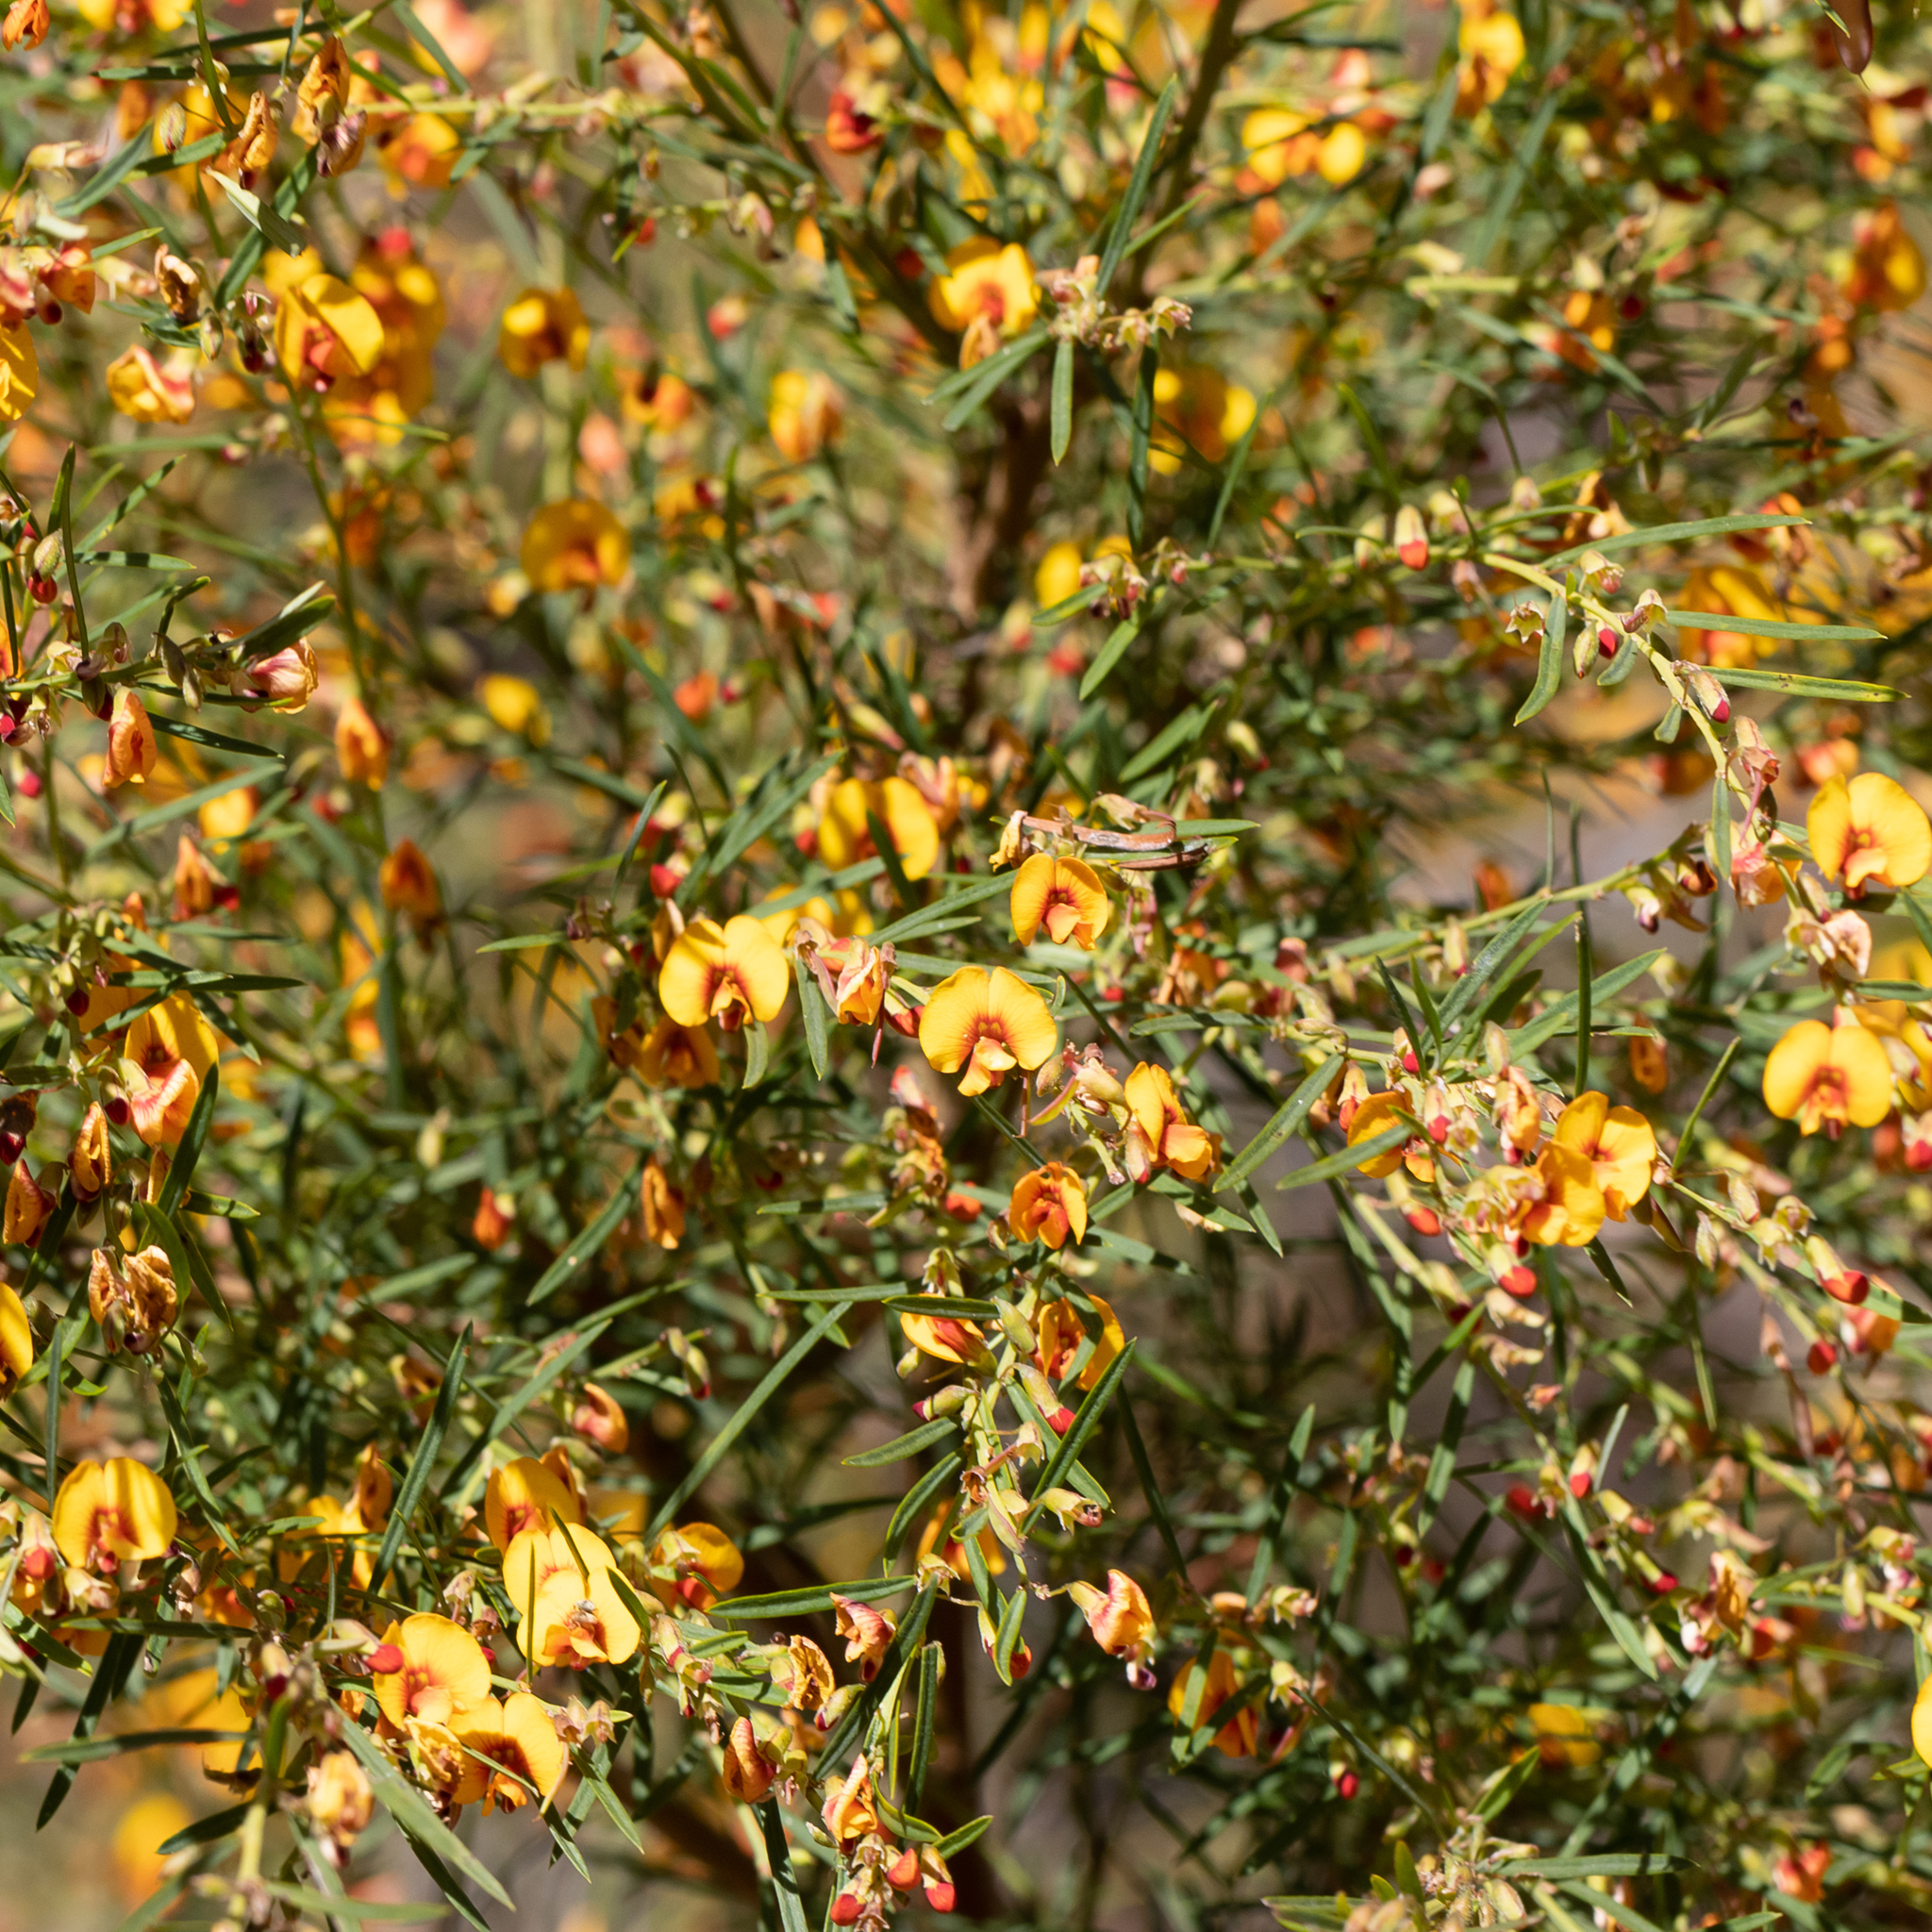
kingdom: Plantae
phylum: Tracheophyta
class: Magnoliopsida
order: Fabales
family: Fabaceae
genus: Bossiaea
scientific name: Bossiaea linophylla
